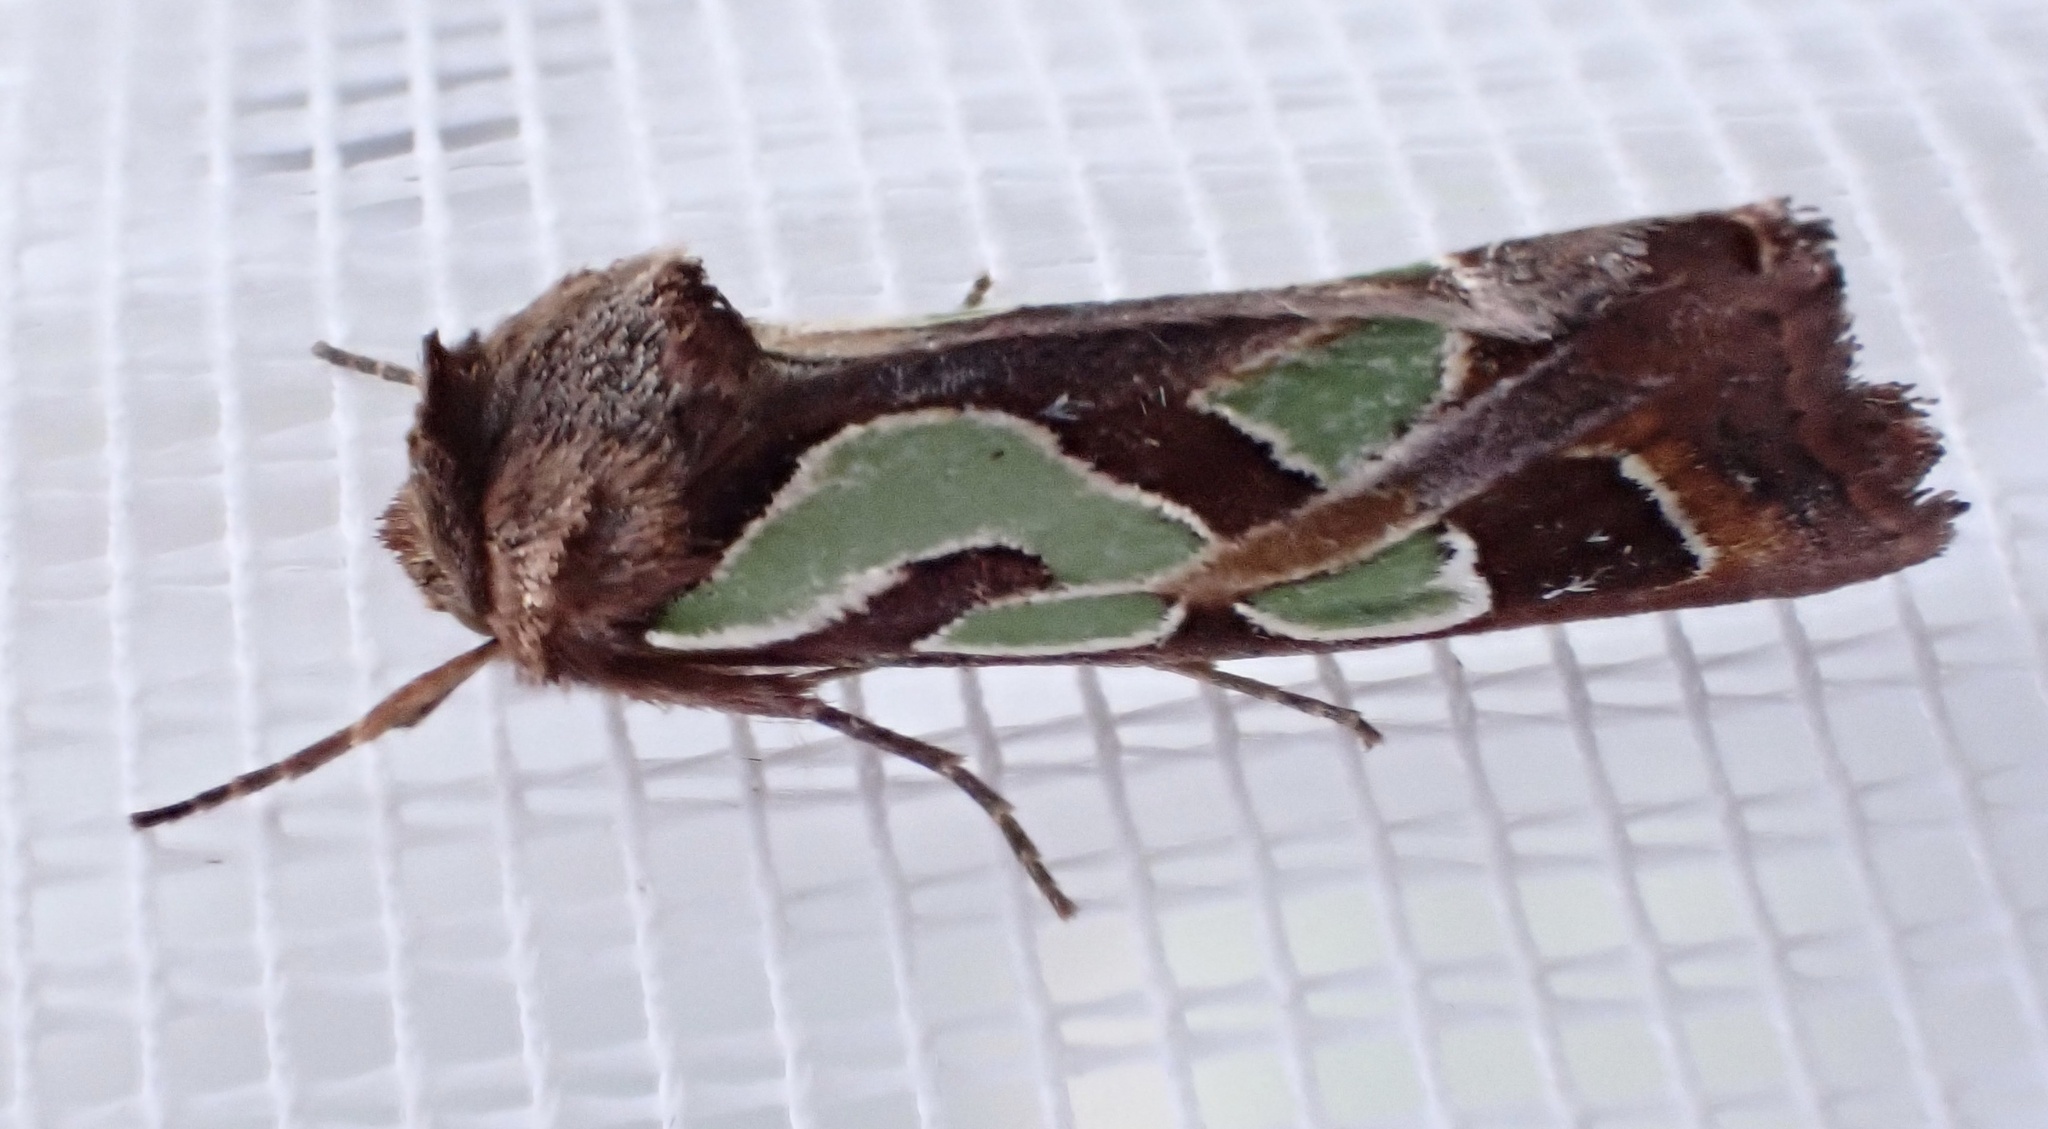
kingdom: Animalia
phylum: Arthropoda
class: Insecta
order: Lepidoptera
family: Noctuidae
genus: Cosmodes
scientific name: Cosmodes elegans
